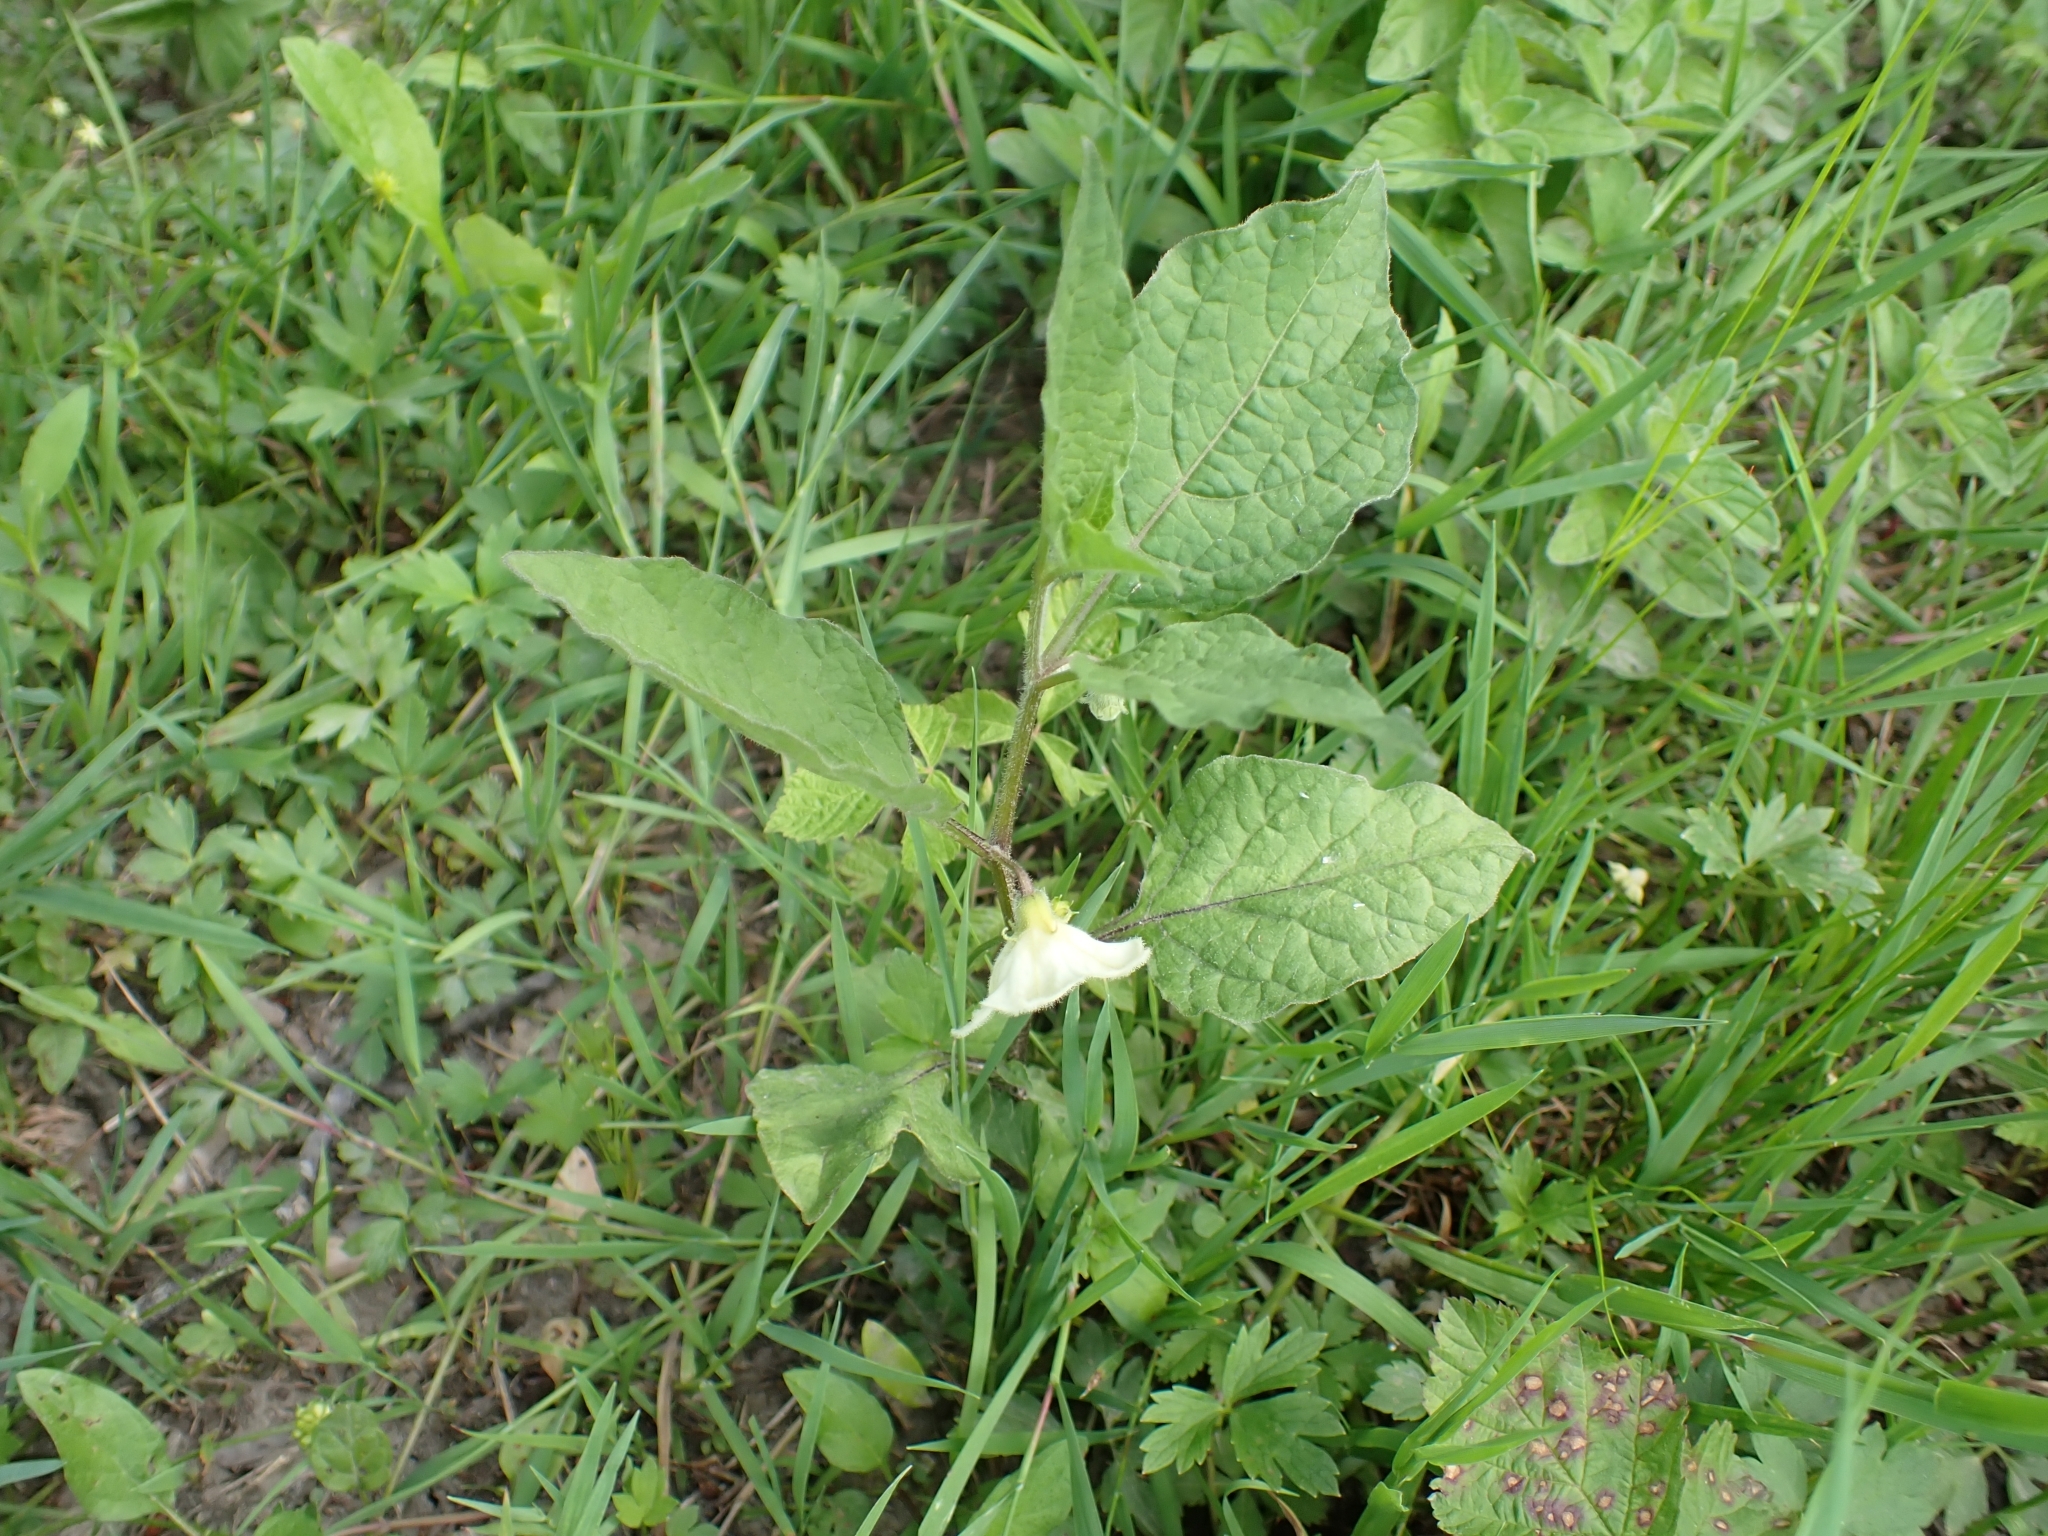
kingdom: Plantae
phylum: Tracheophyta
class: Magnoliopsida
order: Solanales
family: Solanaceae
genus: Alkekengi
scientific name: Alkekengi officinarum
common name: Japanese-lantern
